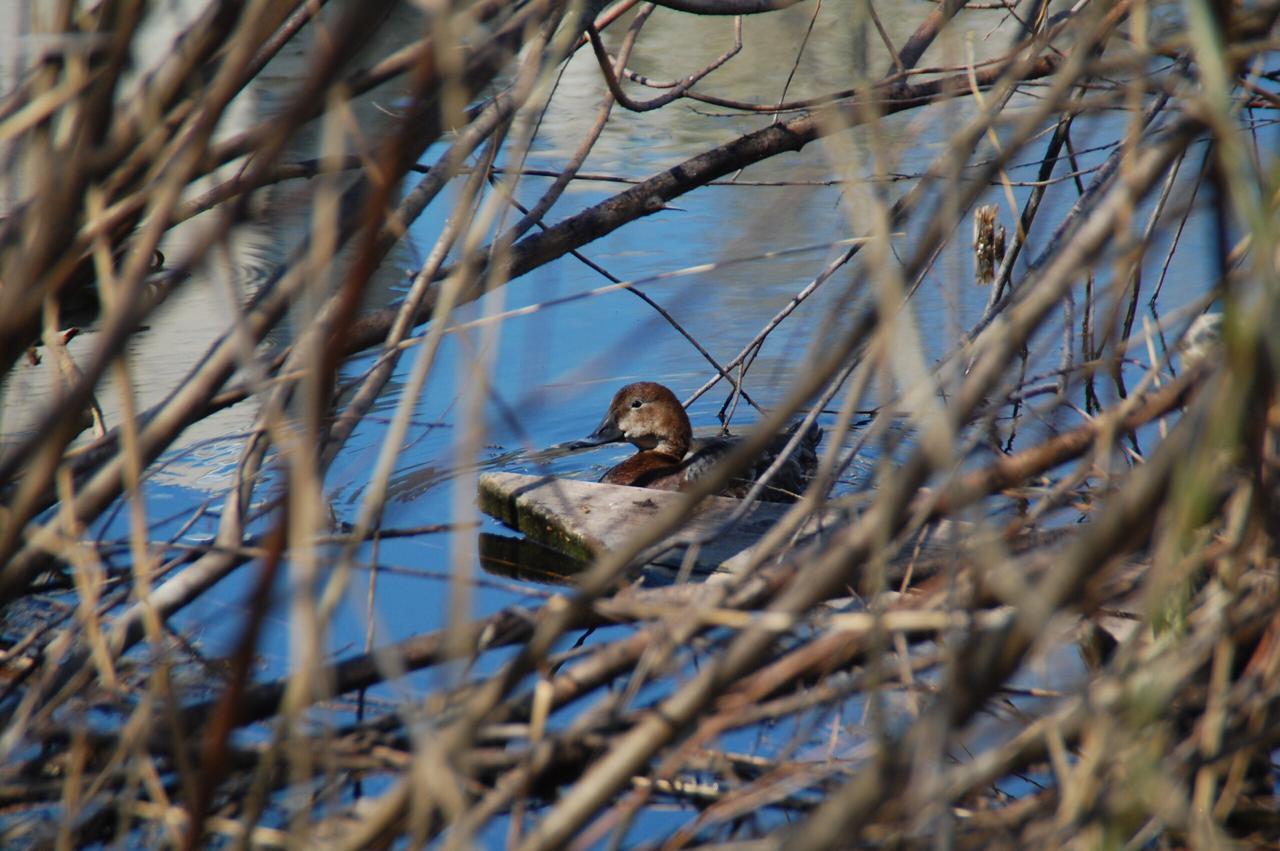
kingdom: Animalia
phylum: Chordata
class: Aves
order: Anseriformes
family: Anatidae
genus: Aythya
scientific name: Aythya ferina
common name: Common pochard
